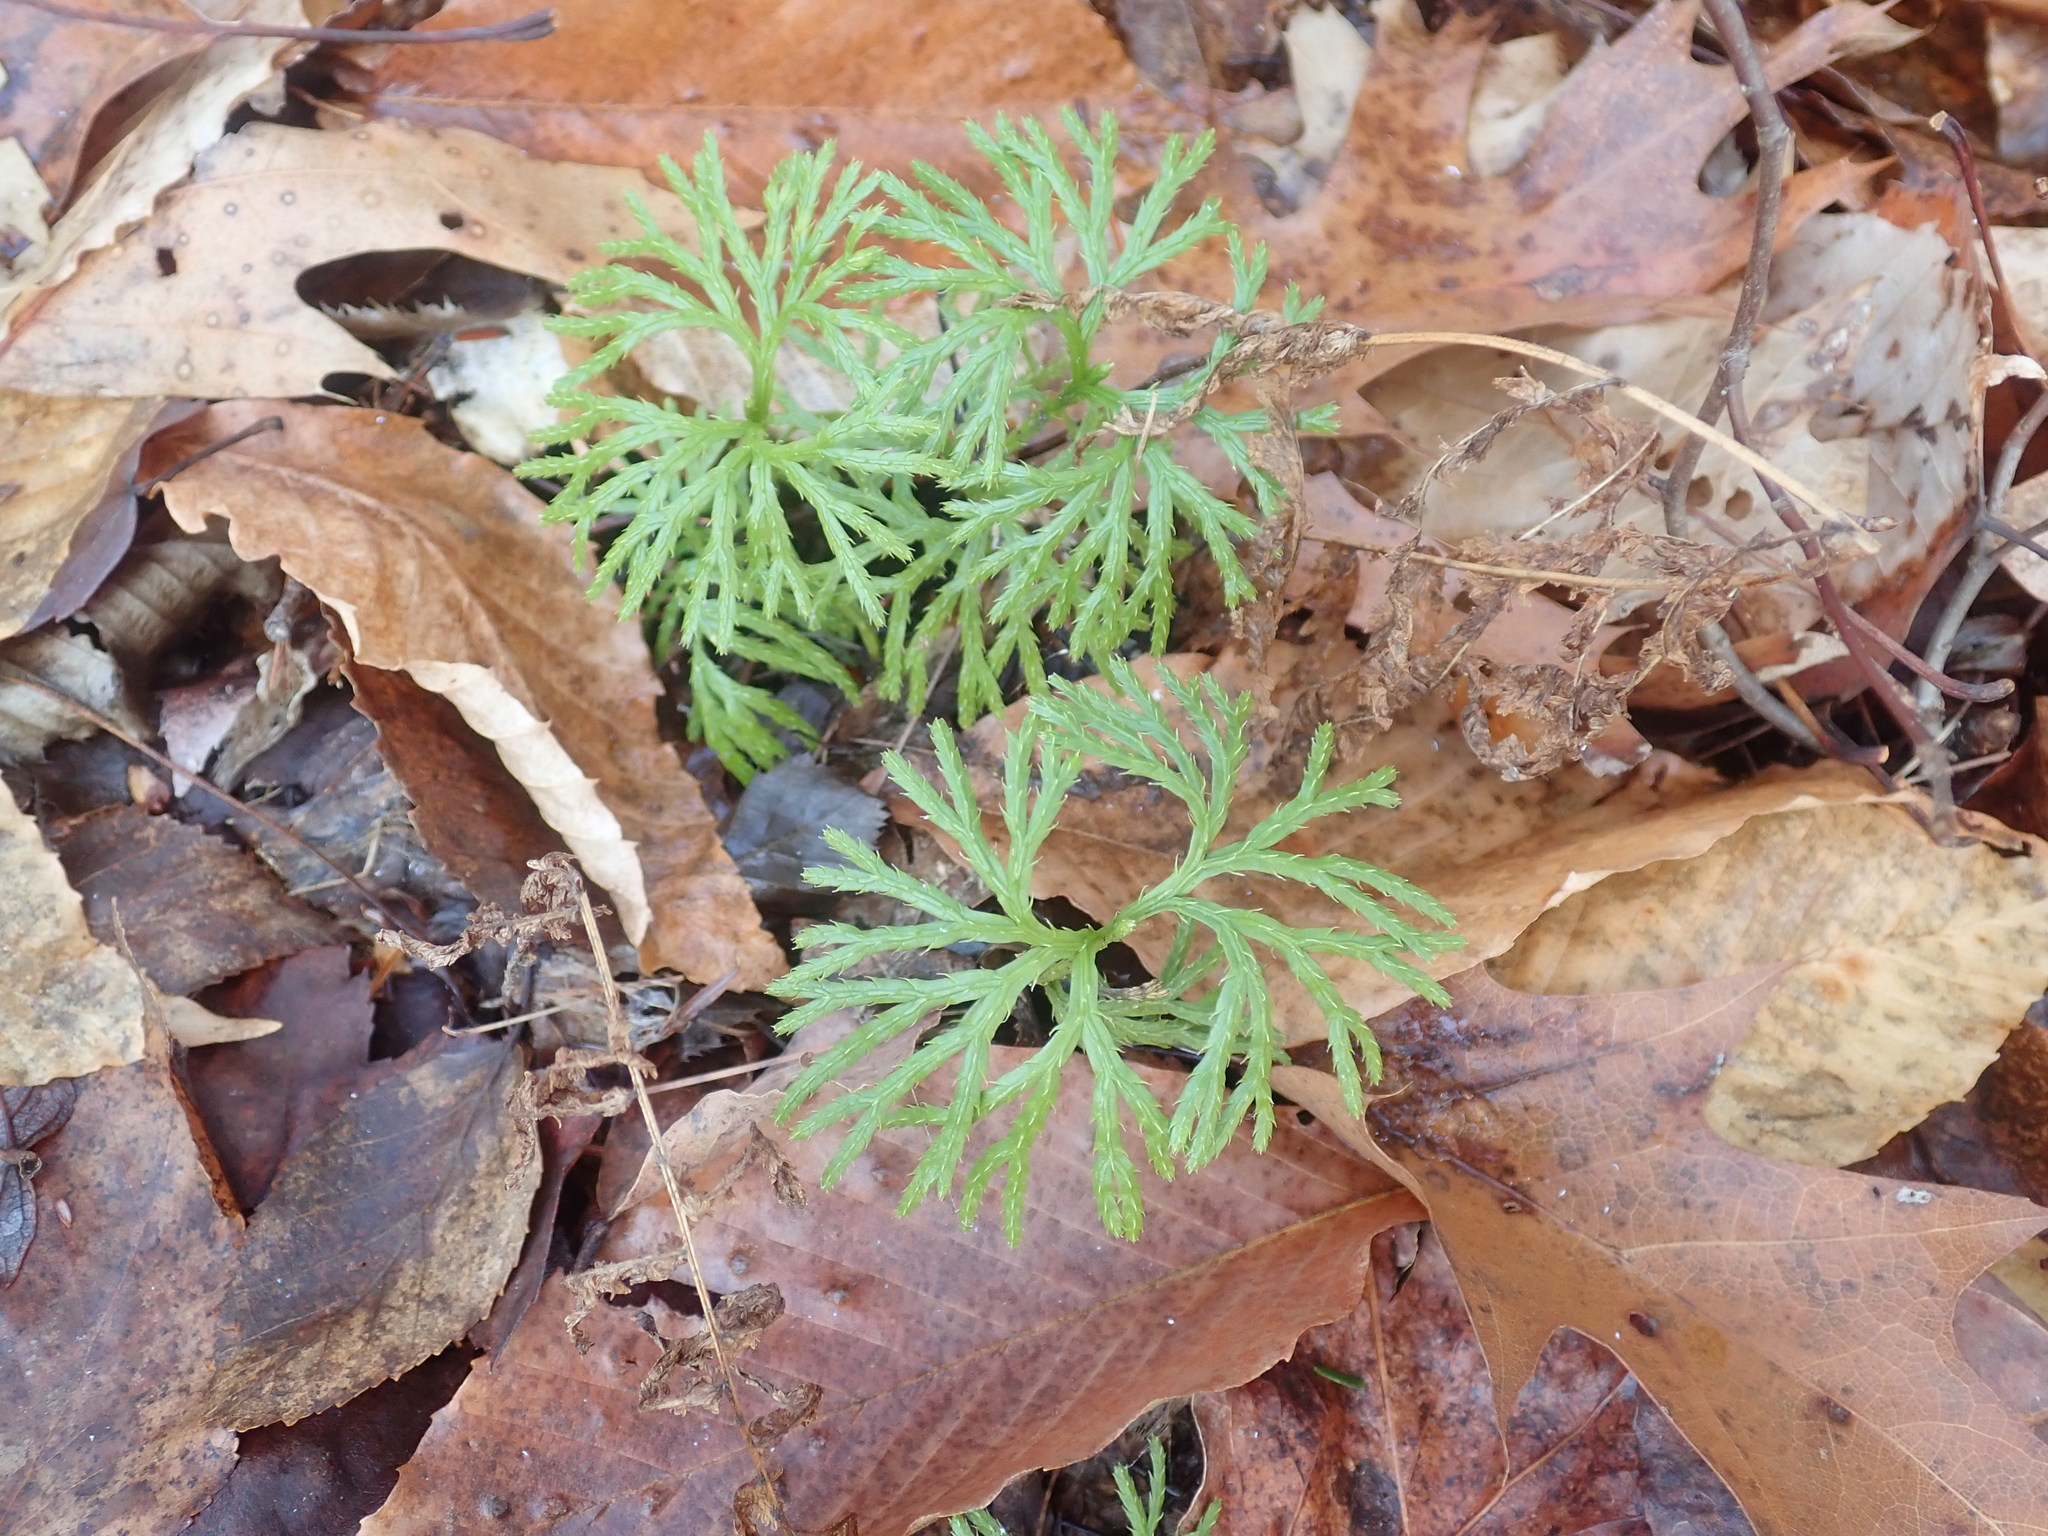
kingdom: Plantae
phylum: Tracheophyta
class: Lycopodiopsida
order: Lycopodiales
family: Lycopodiaceae
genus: Diphasiastrum
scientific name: Diphasiastrum digitatum
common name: Southern running-pine
